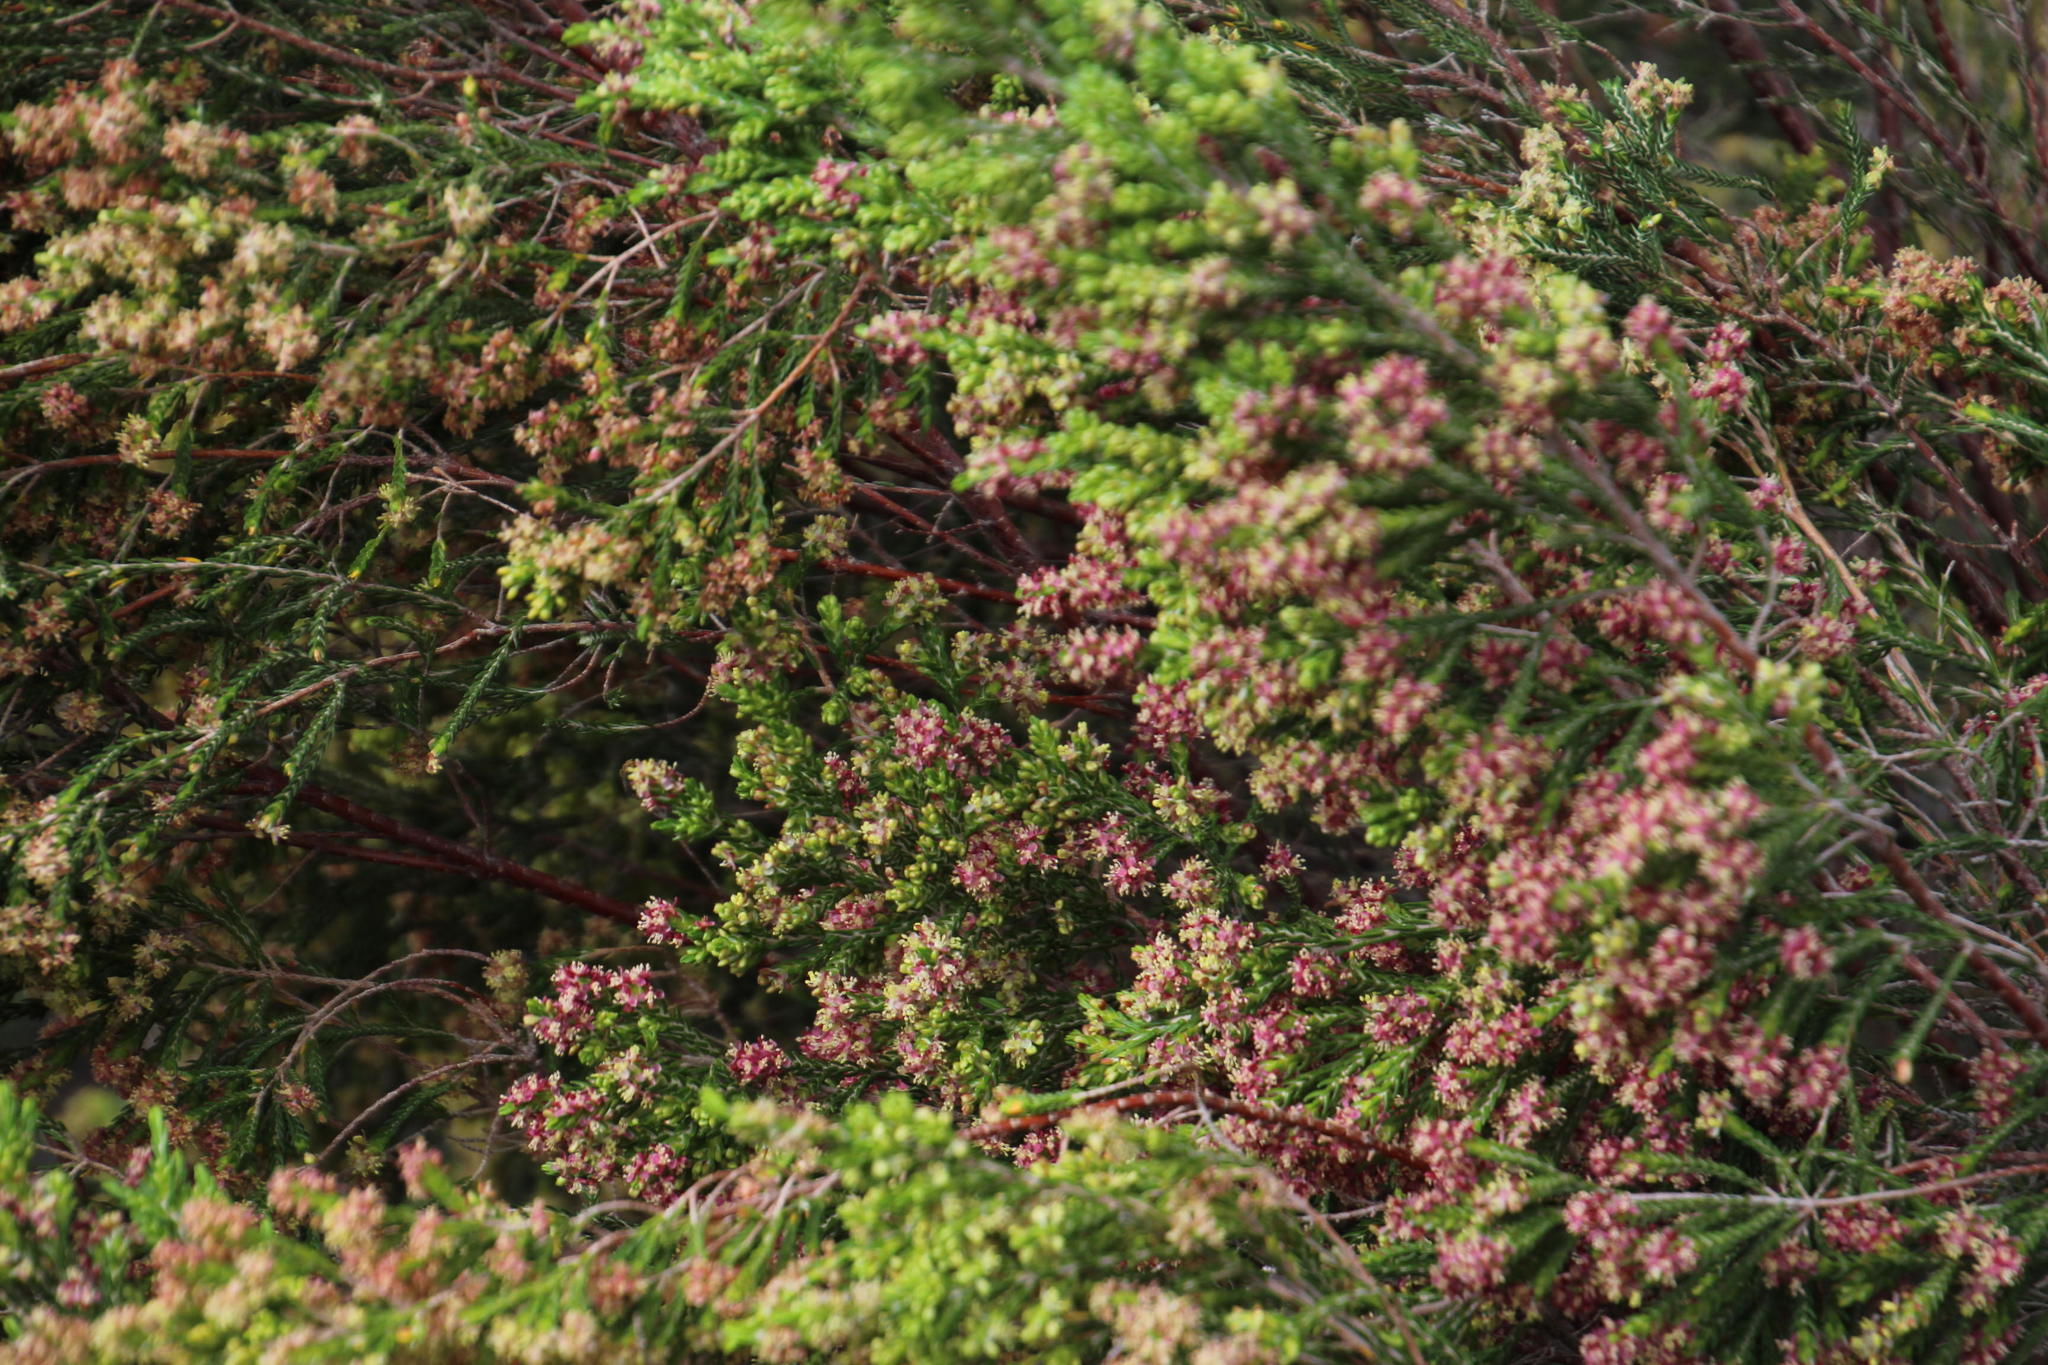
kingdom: Plantae
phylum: Tracheophyta
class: Magnoliopsida
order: Malvales
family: Thymelaeaceae
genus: Passerina
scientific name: Passerina corymbosa
